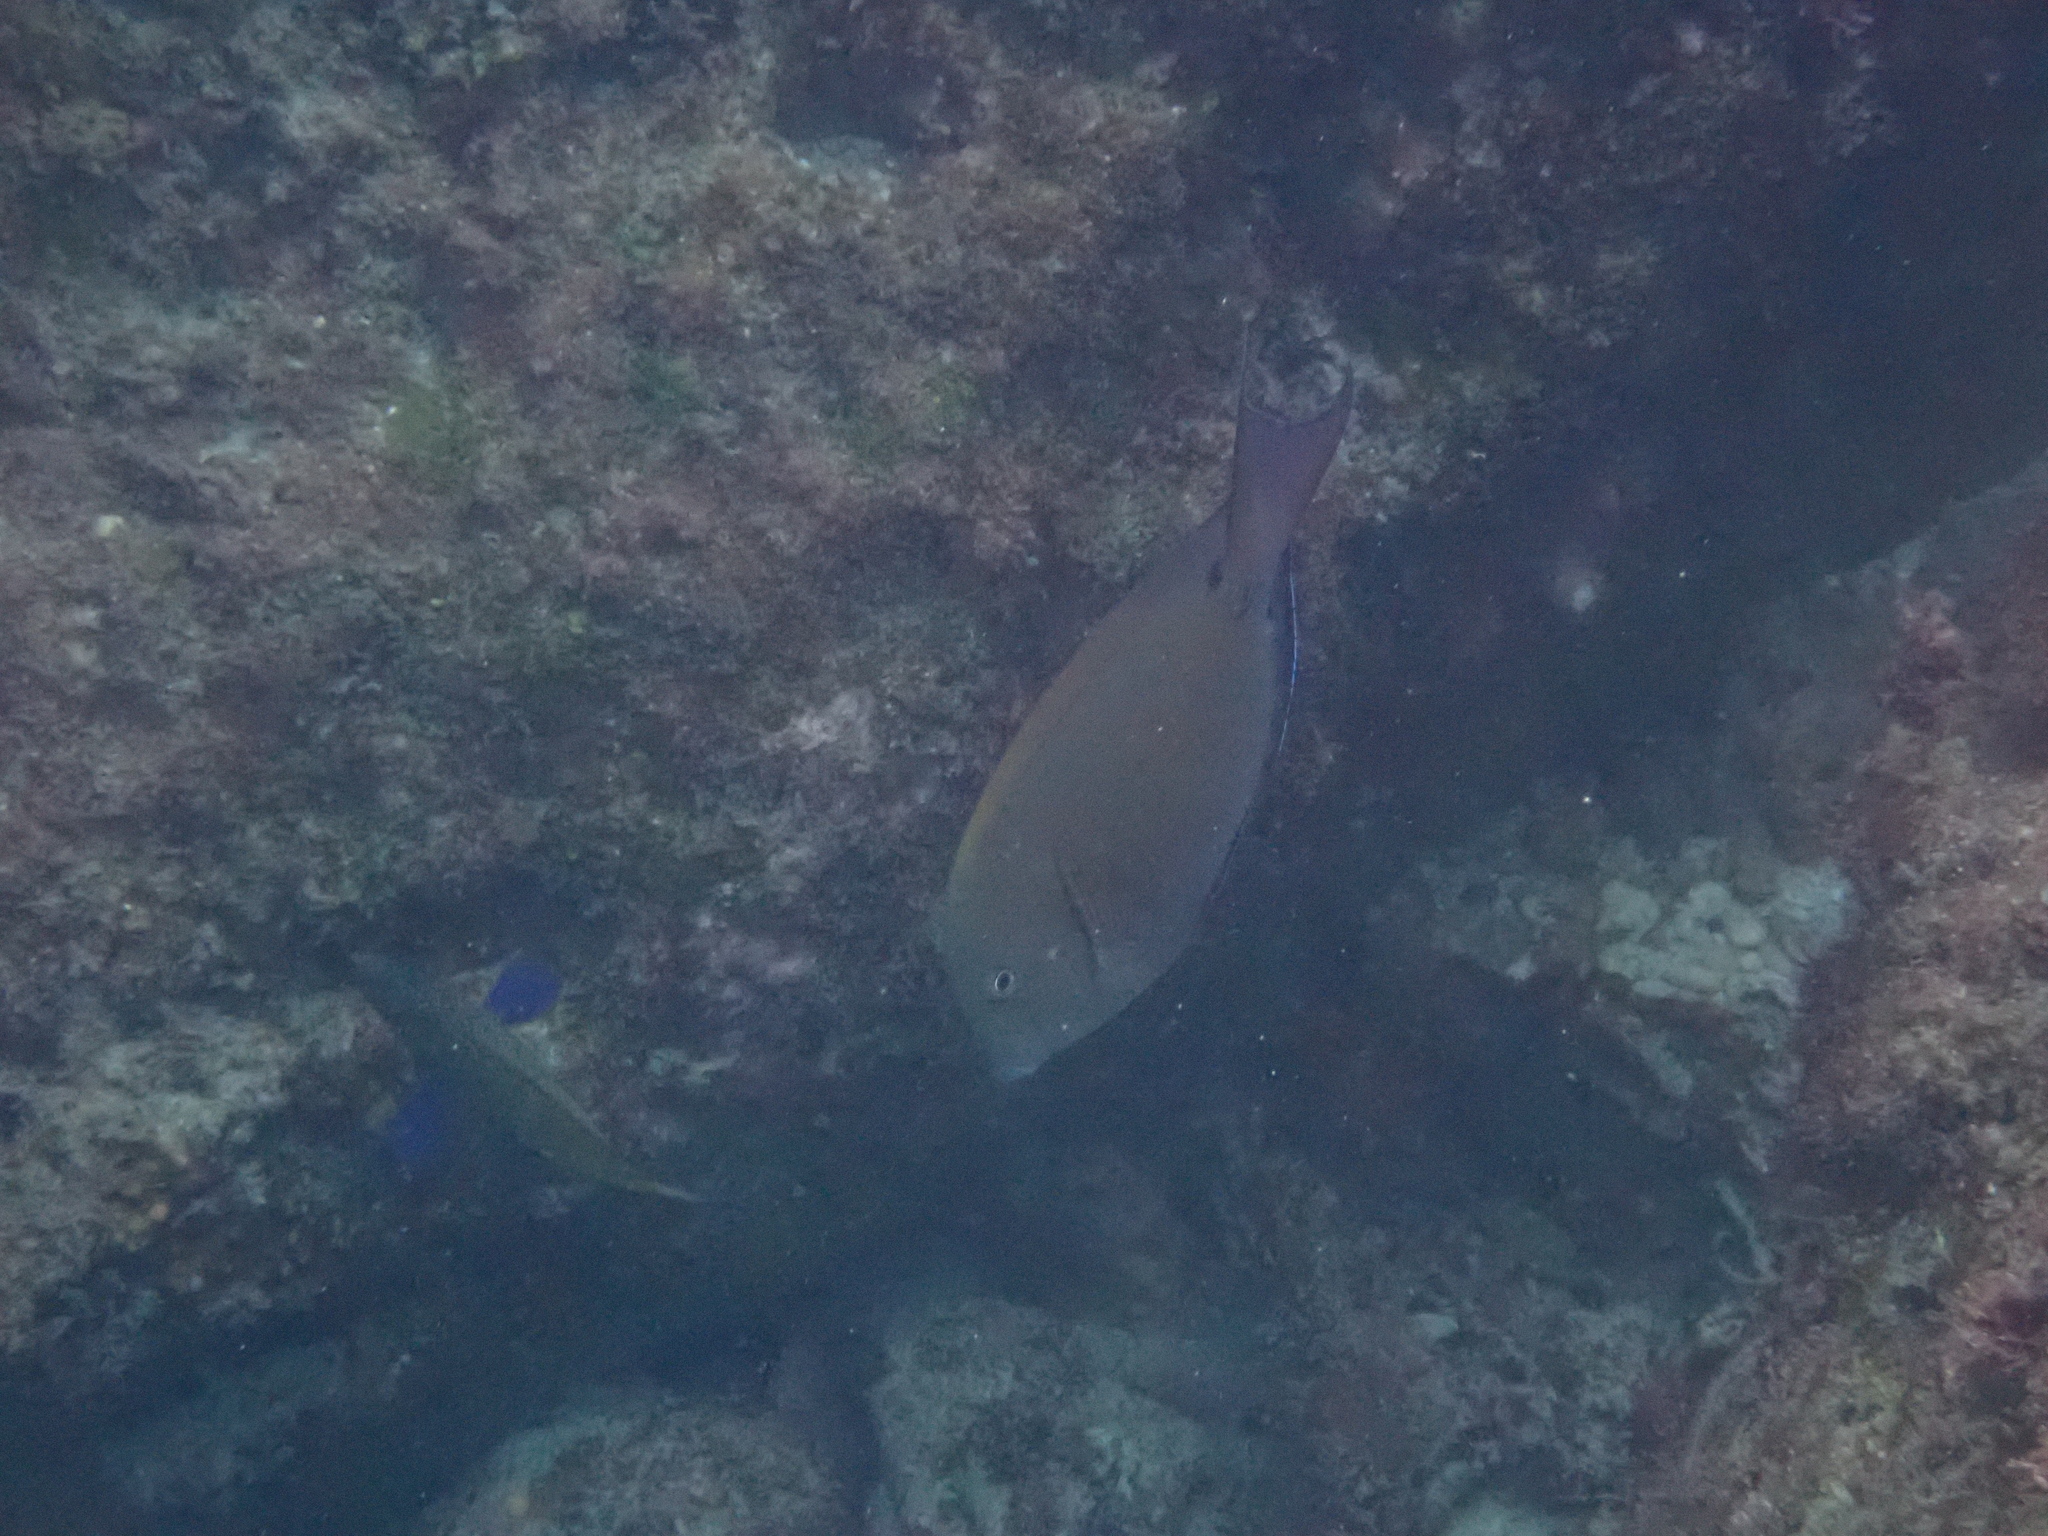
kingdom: Animalia
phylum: Chordata
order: Perciformes
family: Acanthuridae
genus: Acanthurus
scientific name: Acanthurus nigrofuscus
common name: Blackspot surgeonfish
